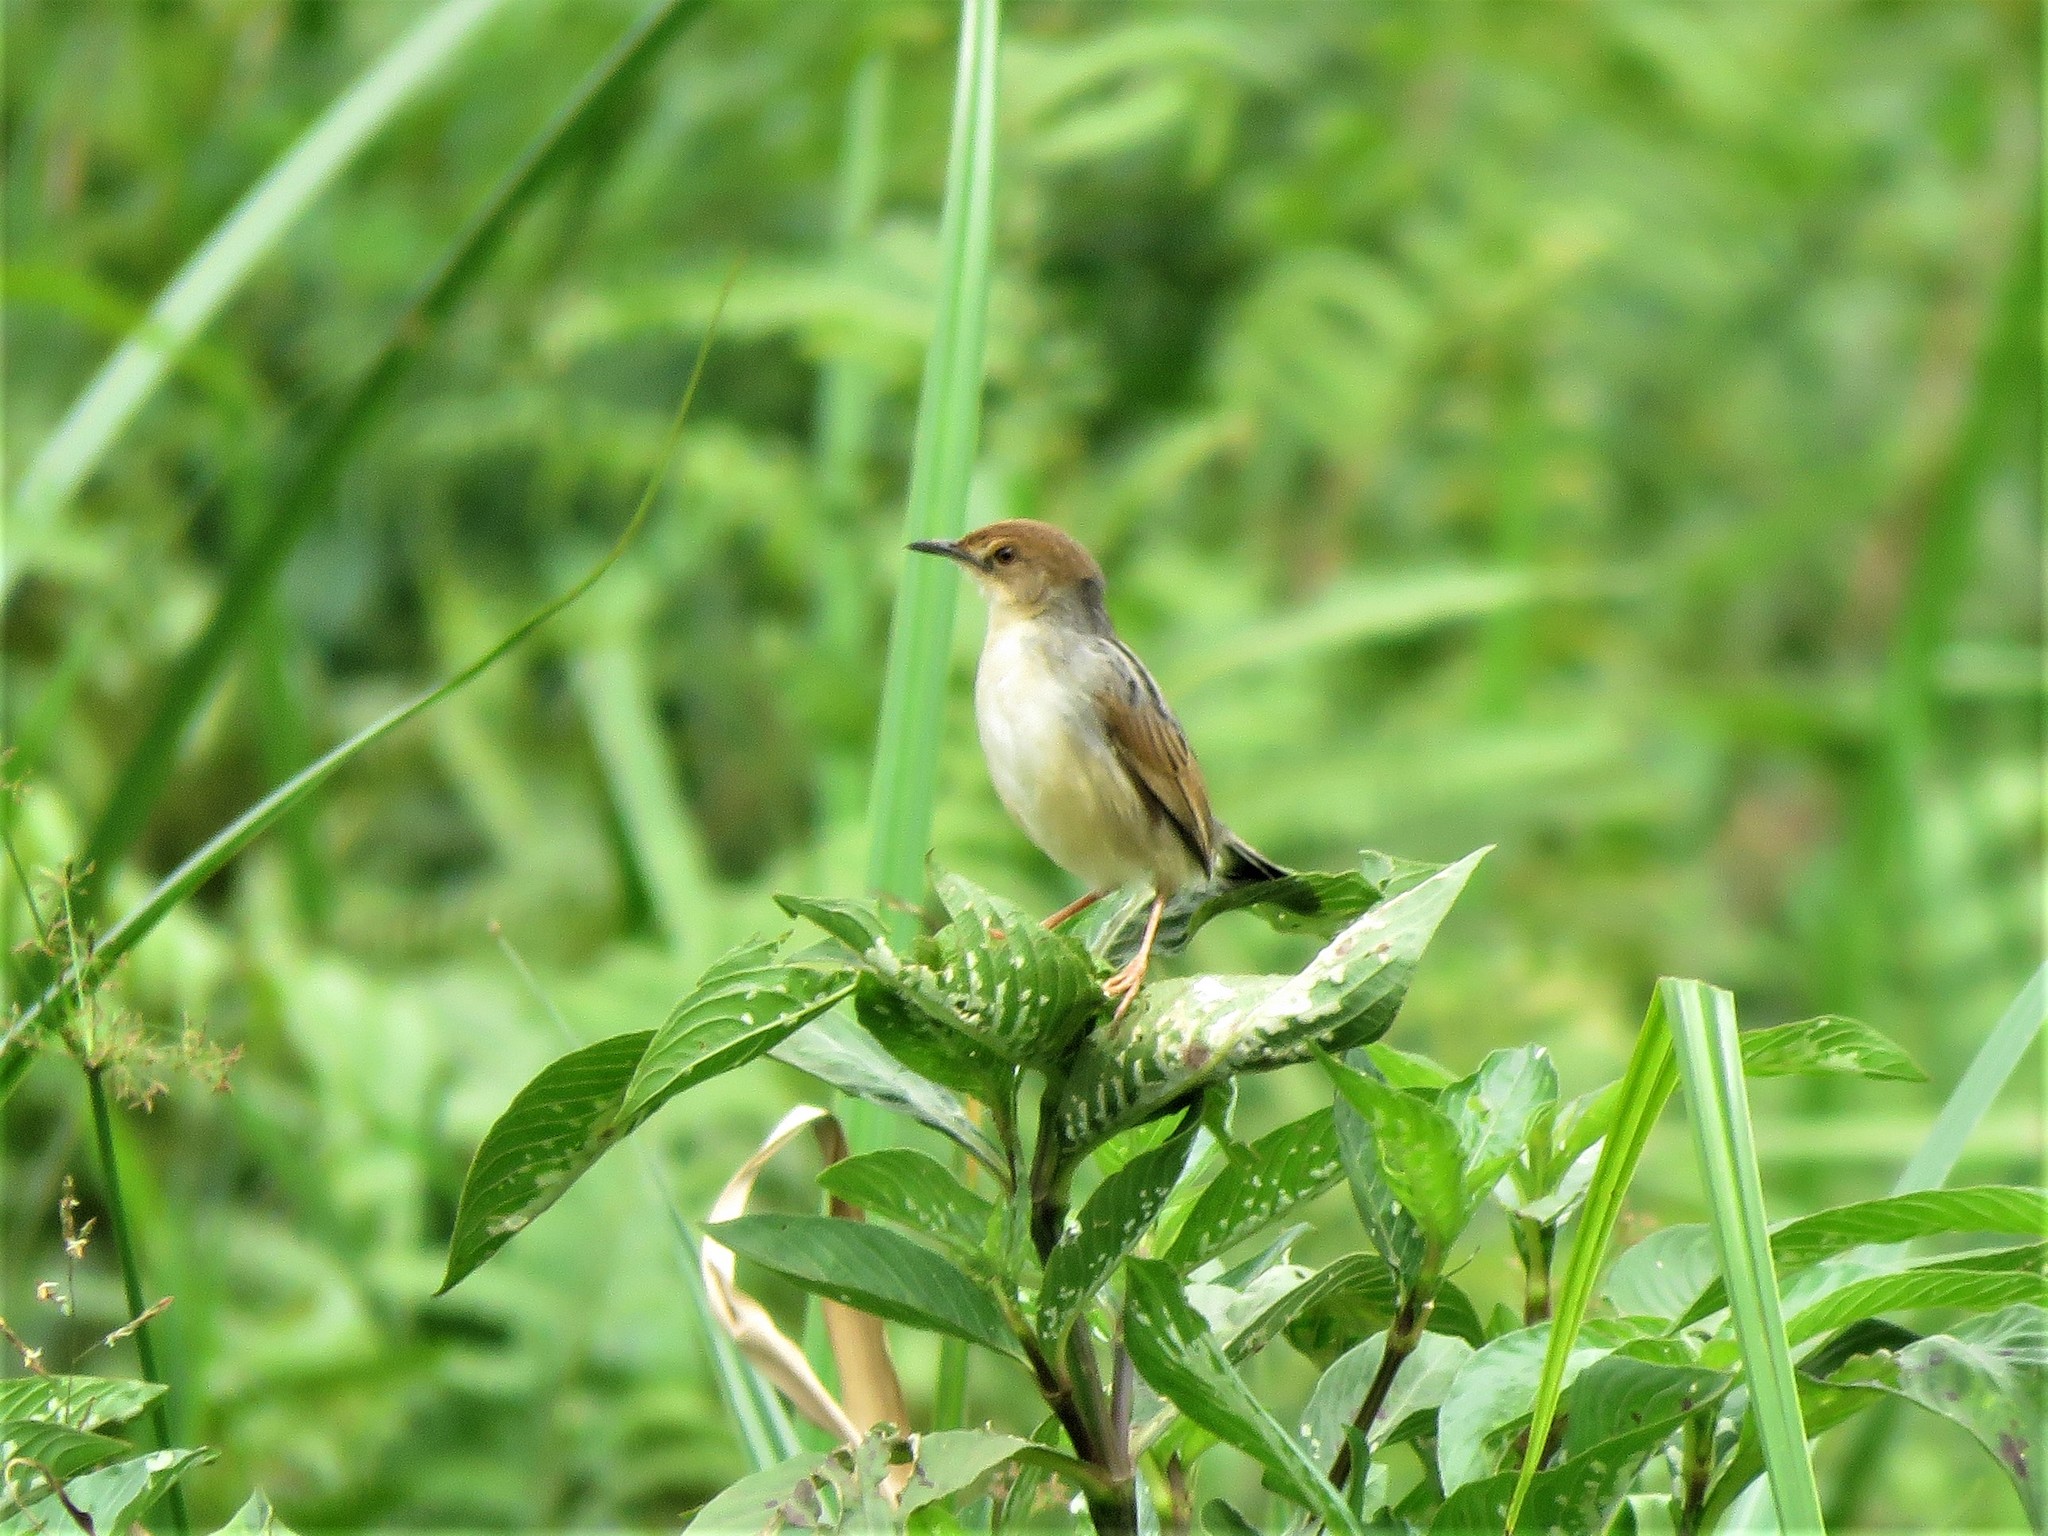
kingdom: Animalia
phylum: Chordata
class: Aves
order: Passeriformes
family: Cisticolidae
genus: Cisticola
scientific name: Cisticola marginatus
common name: Winding cisticola
